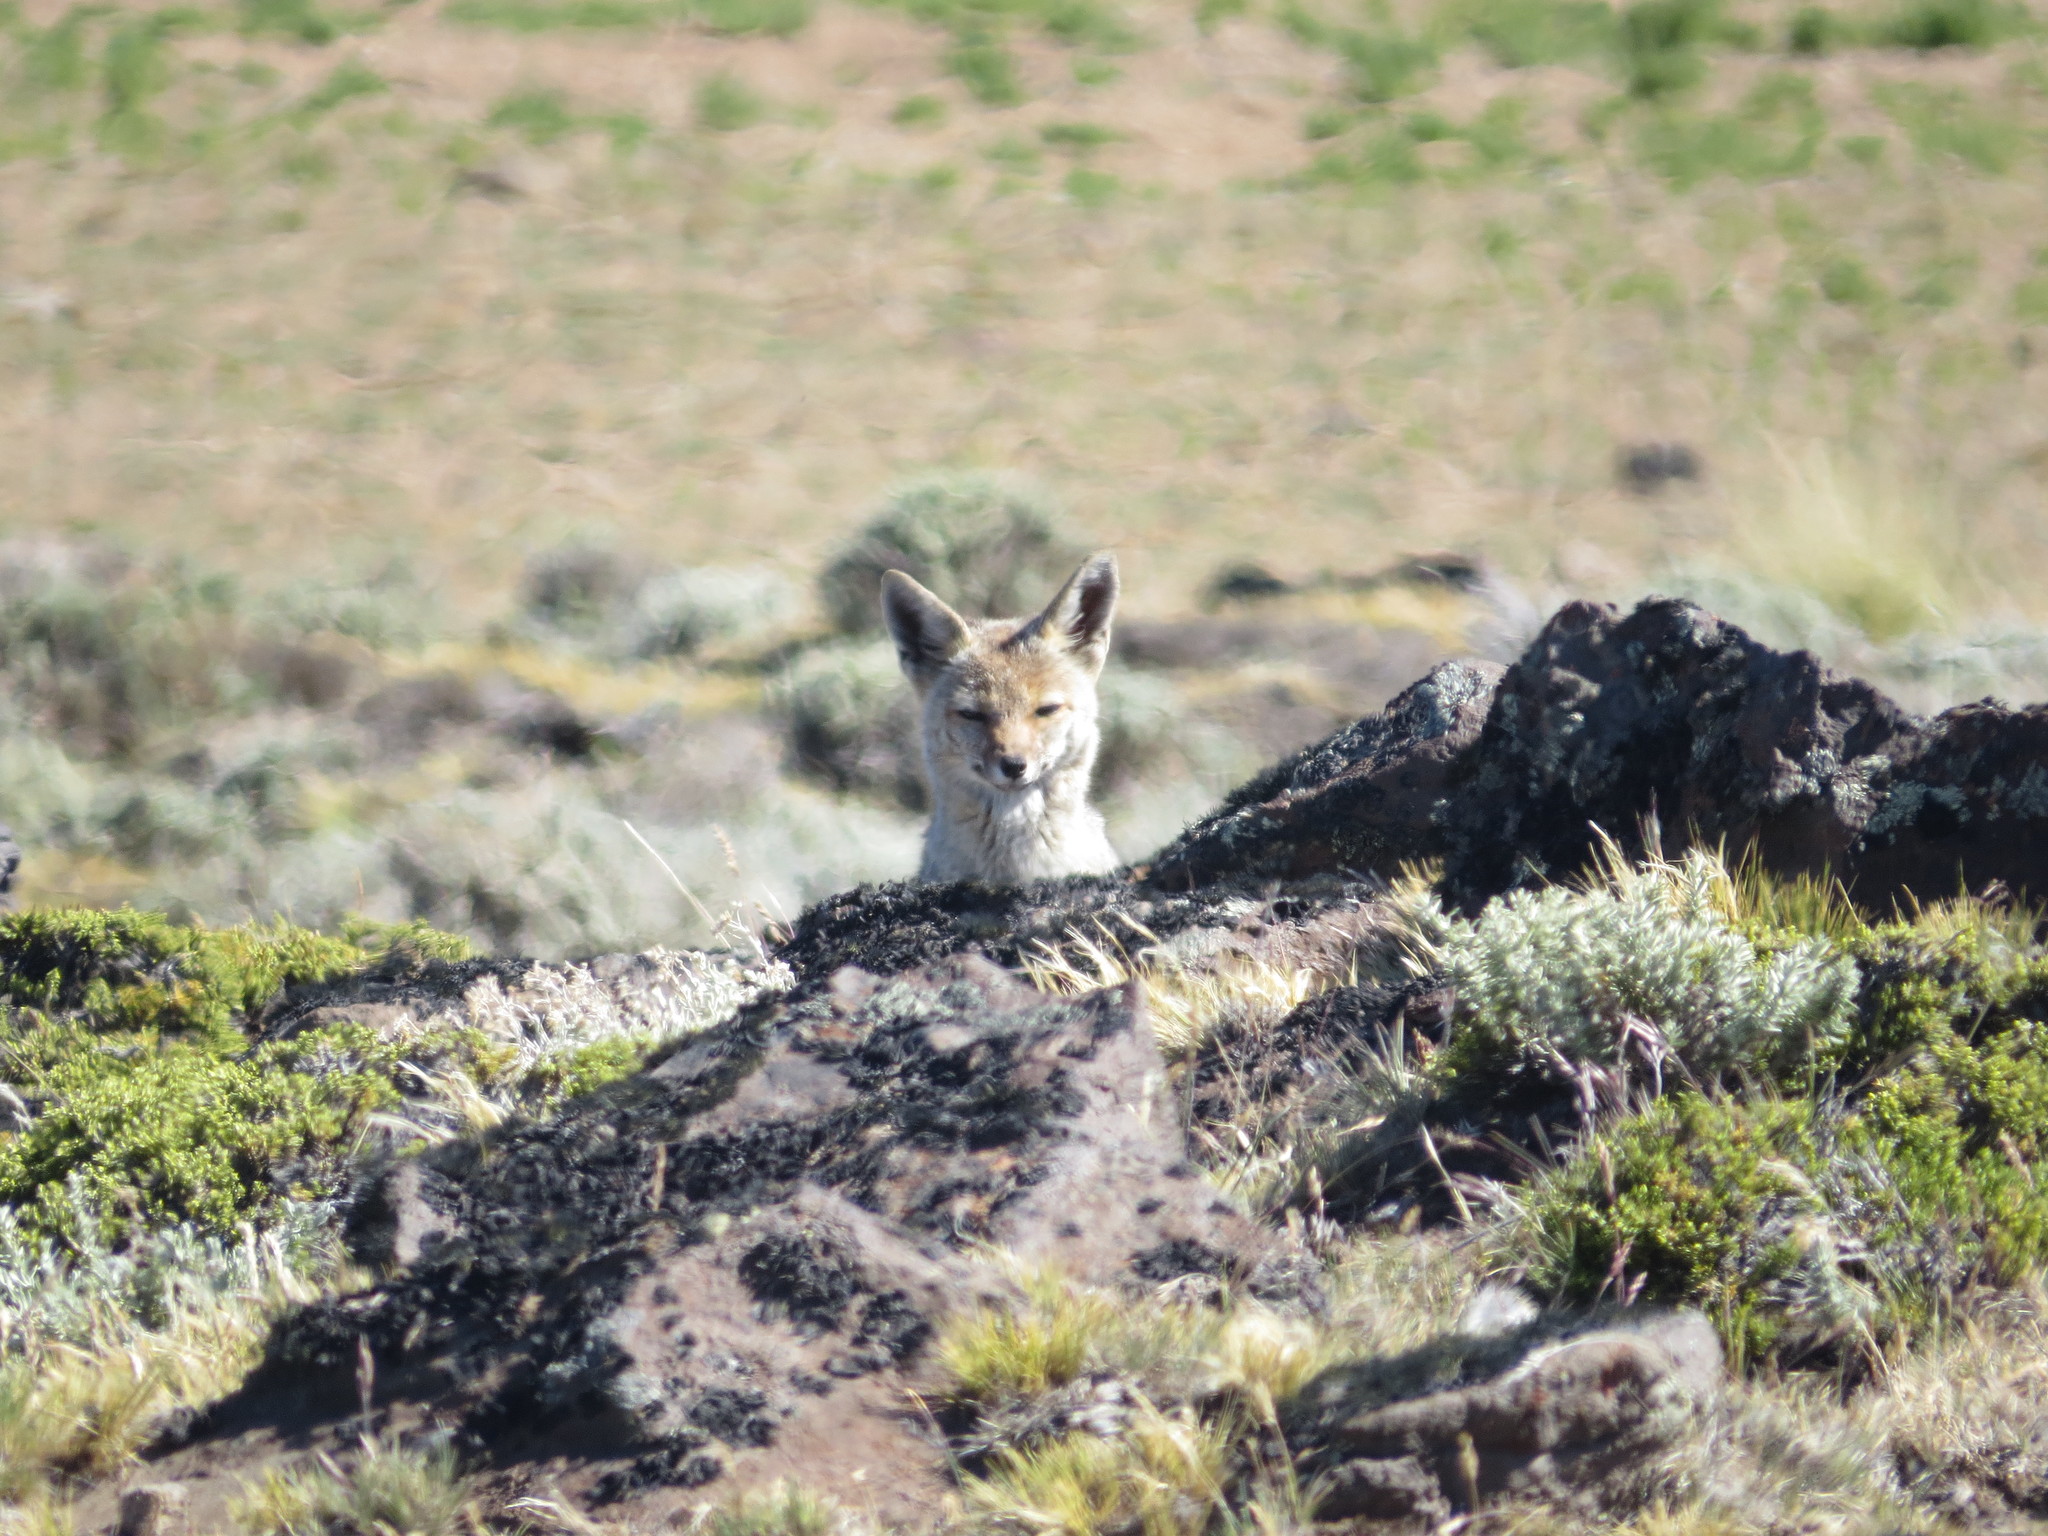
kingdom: Animalia
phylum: Chordata
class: Mammalia
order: Carnivora
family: Canidae
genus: Lycalopex
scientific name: Lycalopex gymnocercus
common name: Pampas fox
